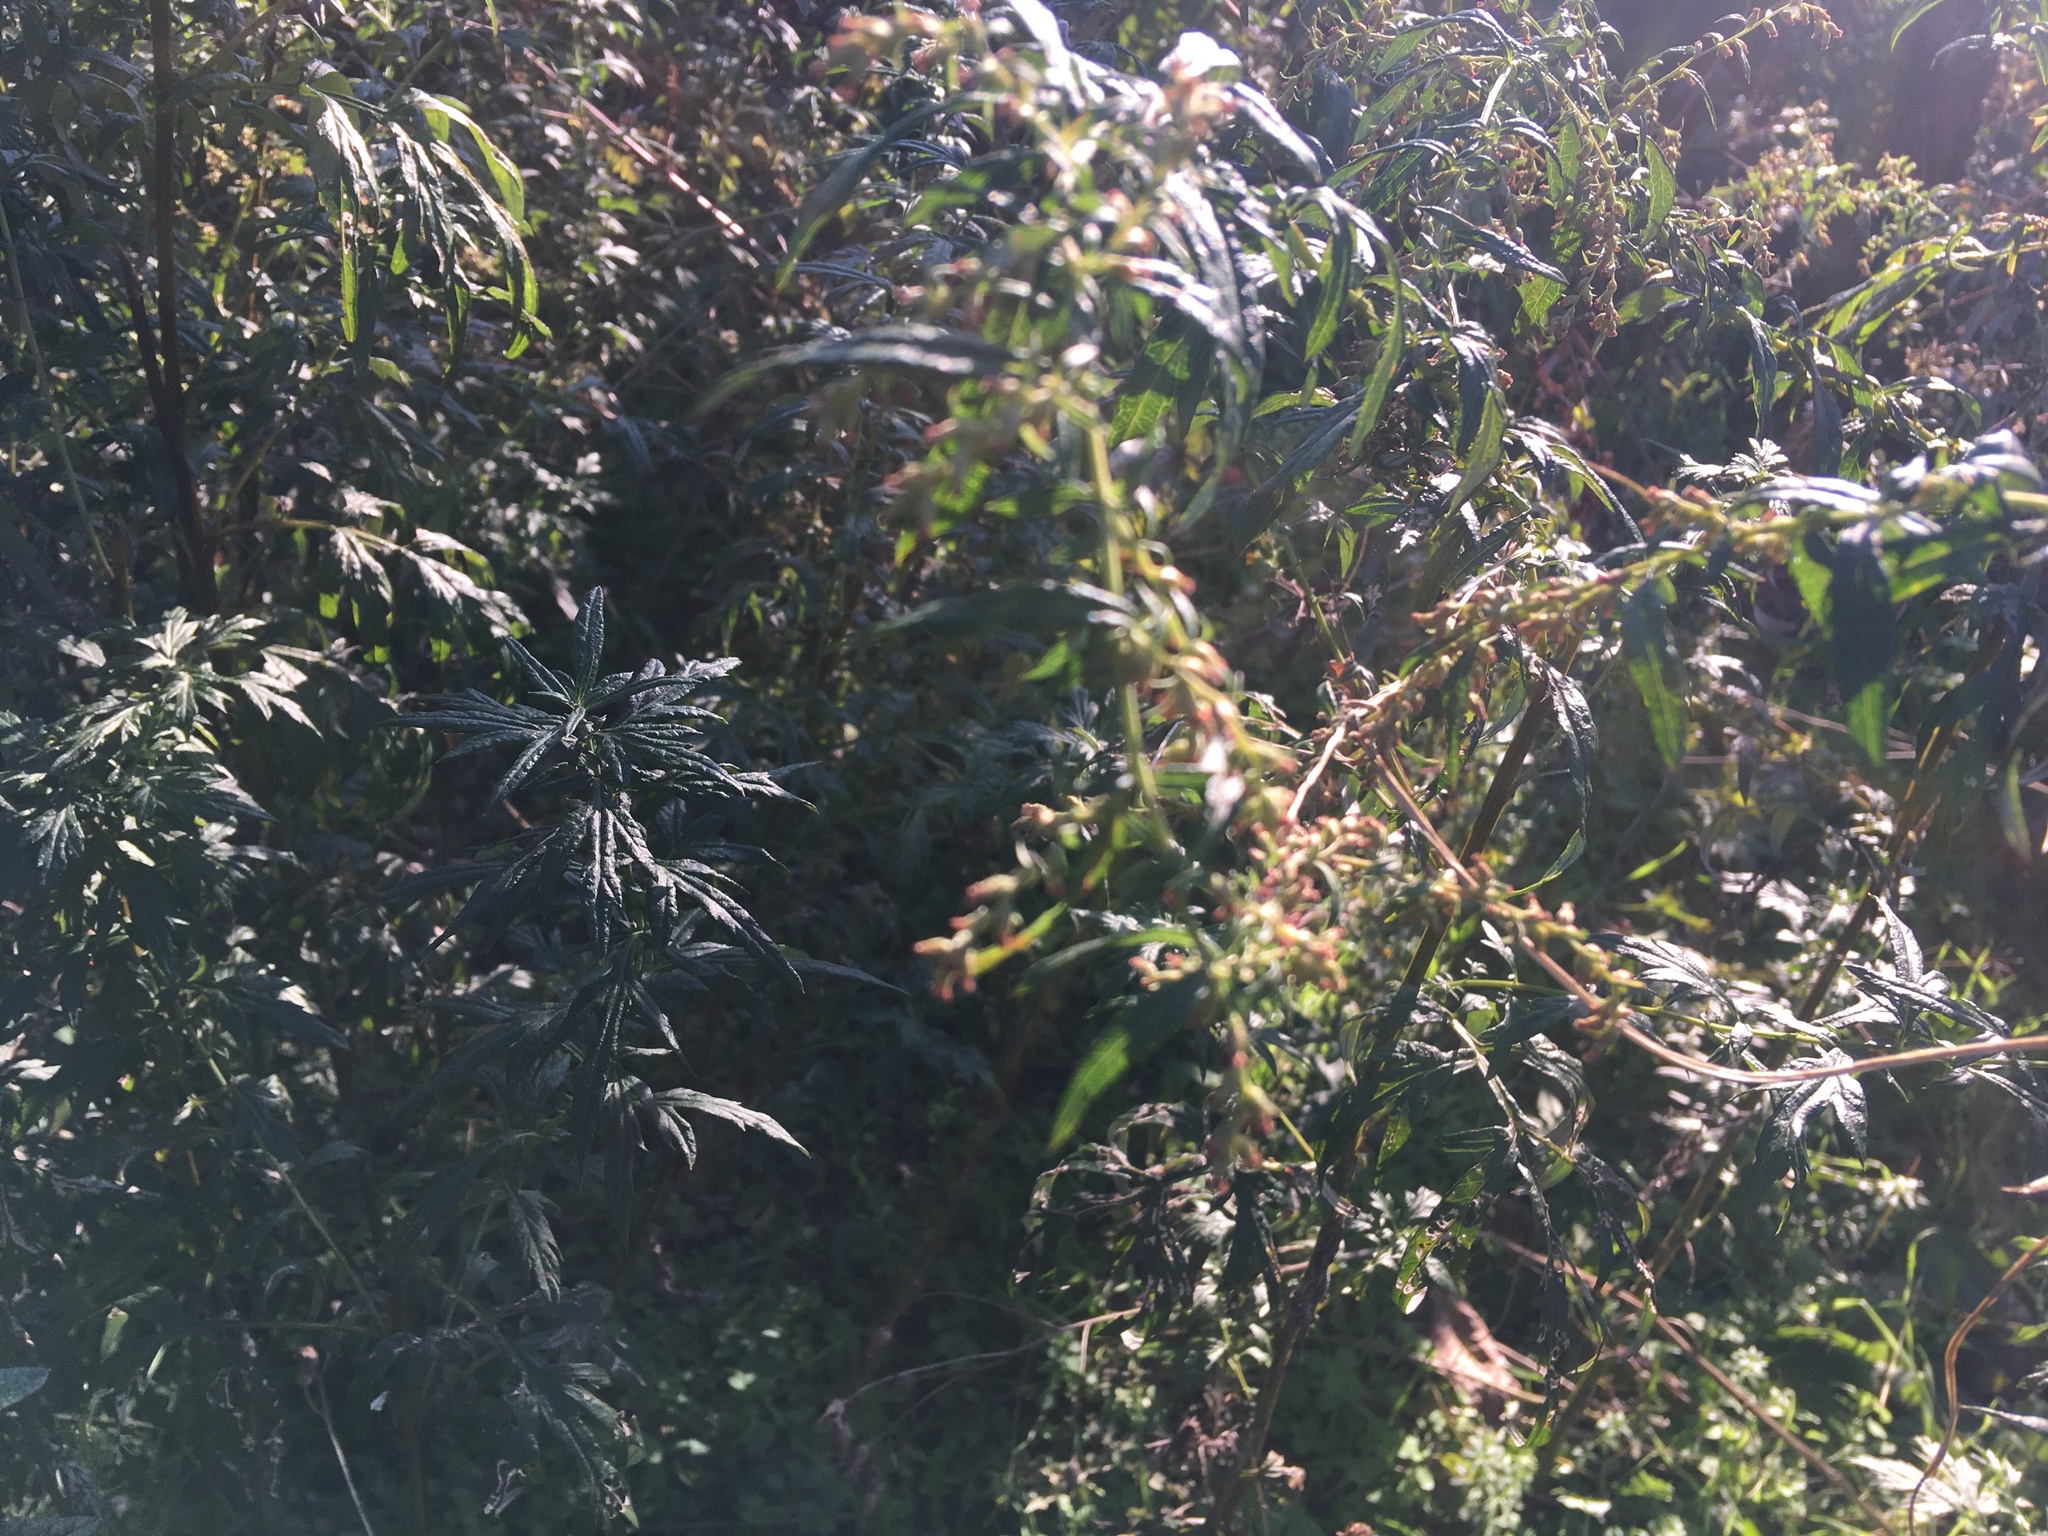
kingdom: Plantae
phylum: Tracheophyta
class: Magnoliopsida
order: Asterales
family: Asteraceae
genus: Artemisia
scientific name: Artemisia vulgaris
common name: Mugwort
